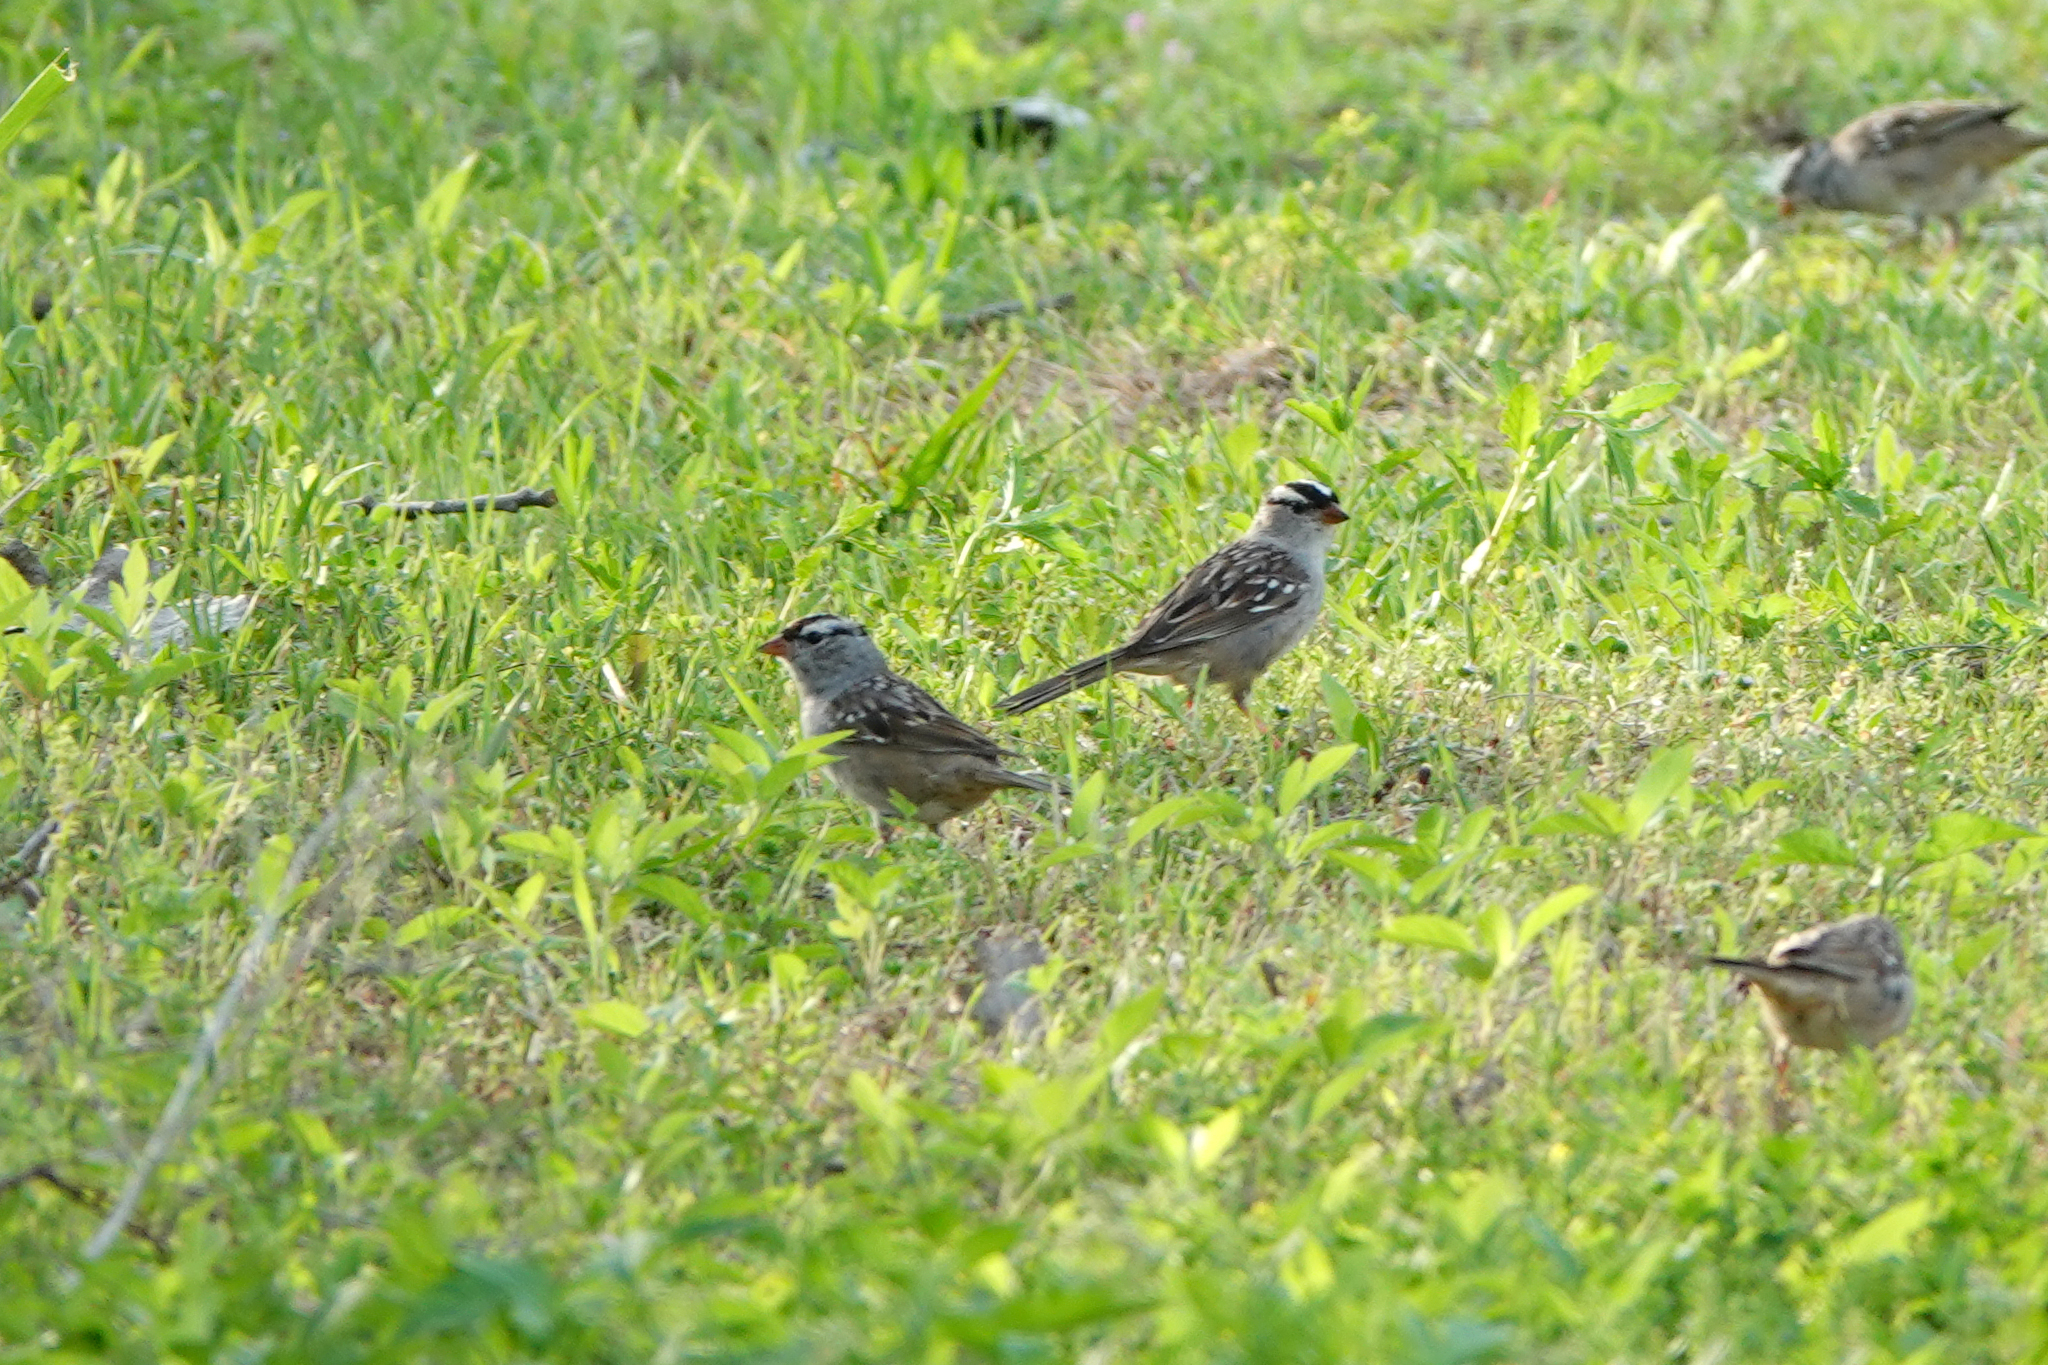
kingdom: Animalia
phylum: Chordata
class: Aves
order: Passeriformes
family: Passerellidae
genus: Zonotrichia
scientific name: Zonotrichia leucophrys
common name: White-crowned sparrow
